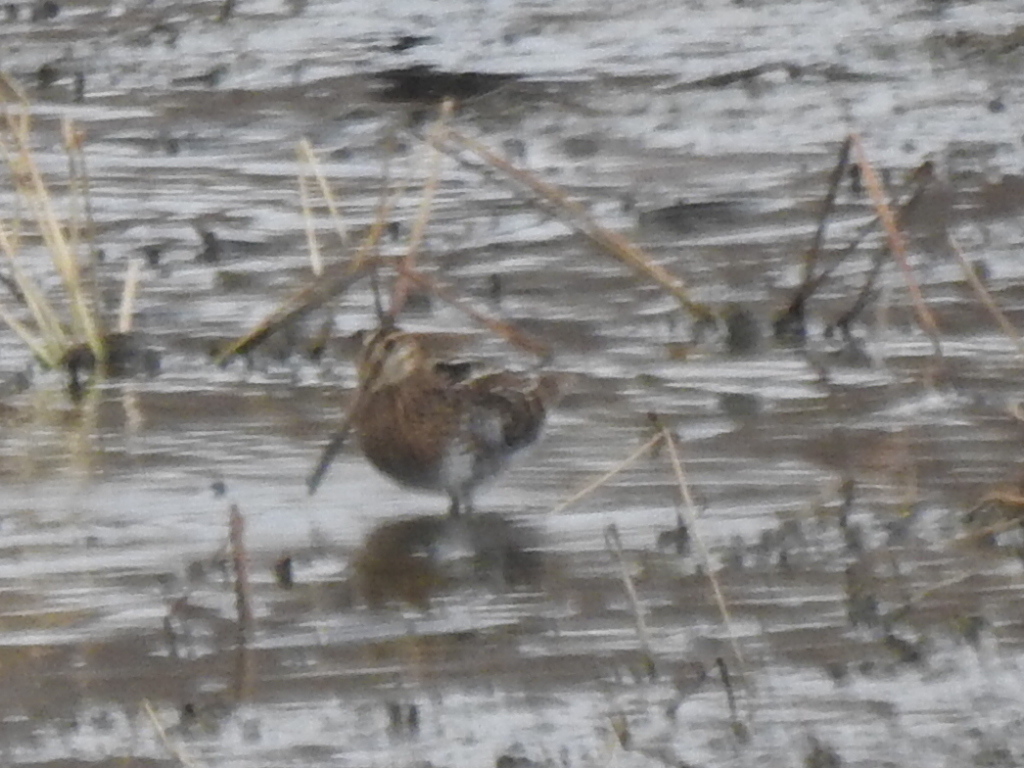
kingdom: Animalia
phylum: Chordata
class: Aves
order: Charadriiformes
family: Scolopacidae
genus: Gallinago
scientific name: Gallinago delicata
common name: Wilson's snipe
